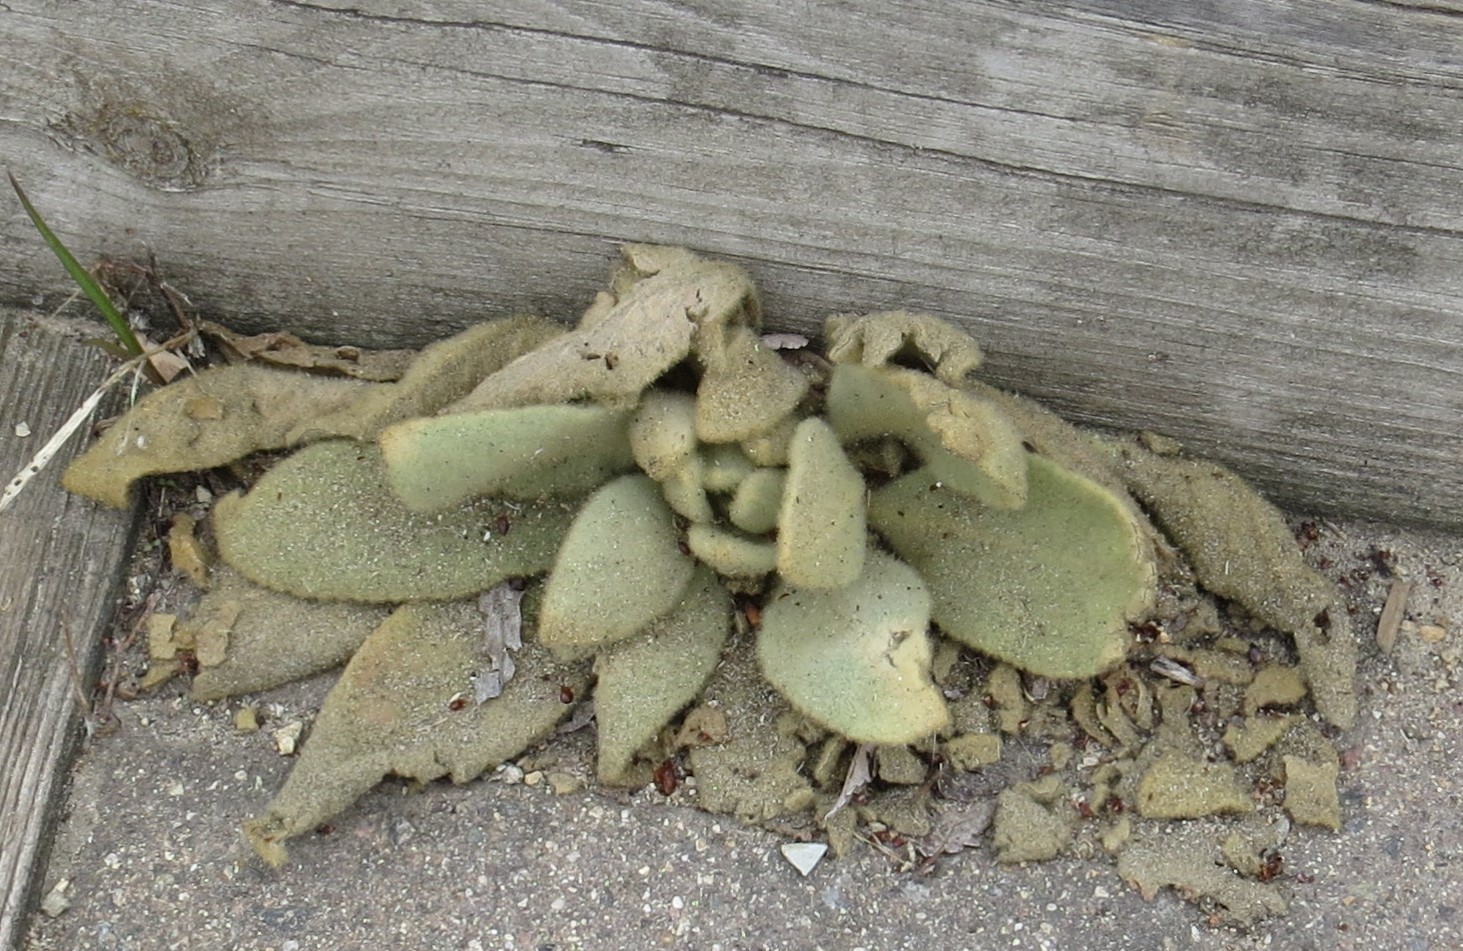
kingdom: Plantae
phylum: Tracheophyta
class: Magnoliopsida
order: Lamiales
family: Scrophulariaceae
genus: Verbascum
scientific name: Verbascum thapsus
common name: Common mullein
